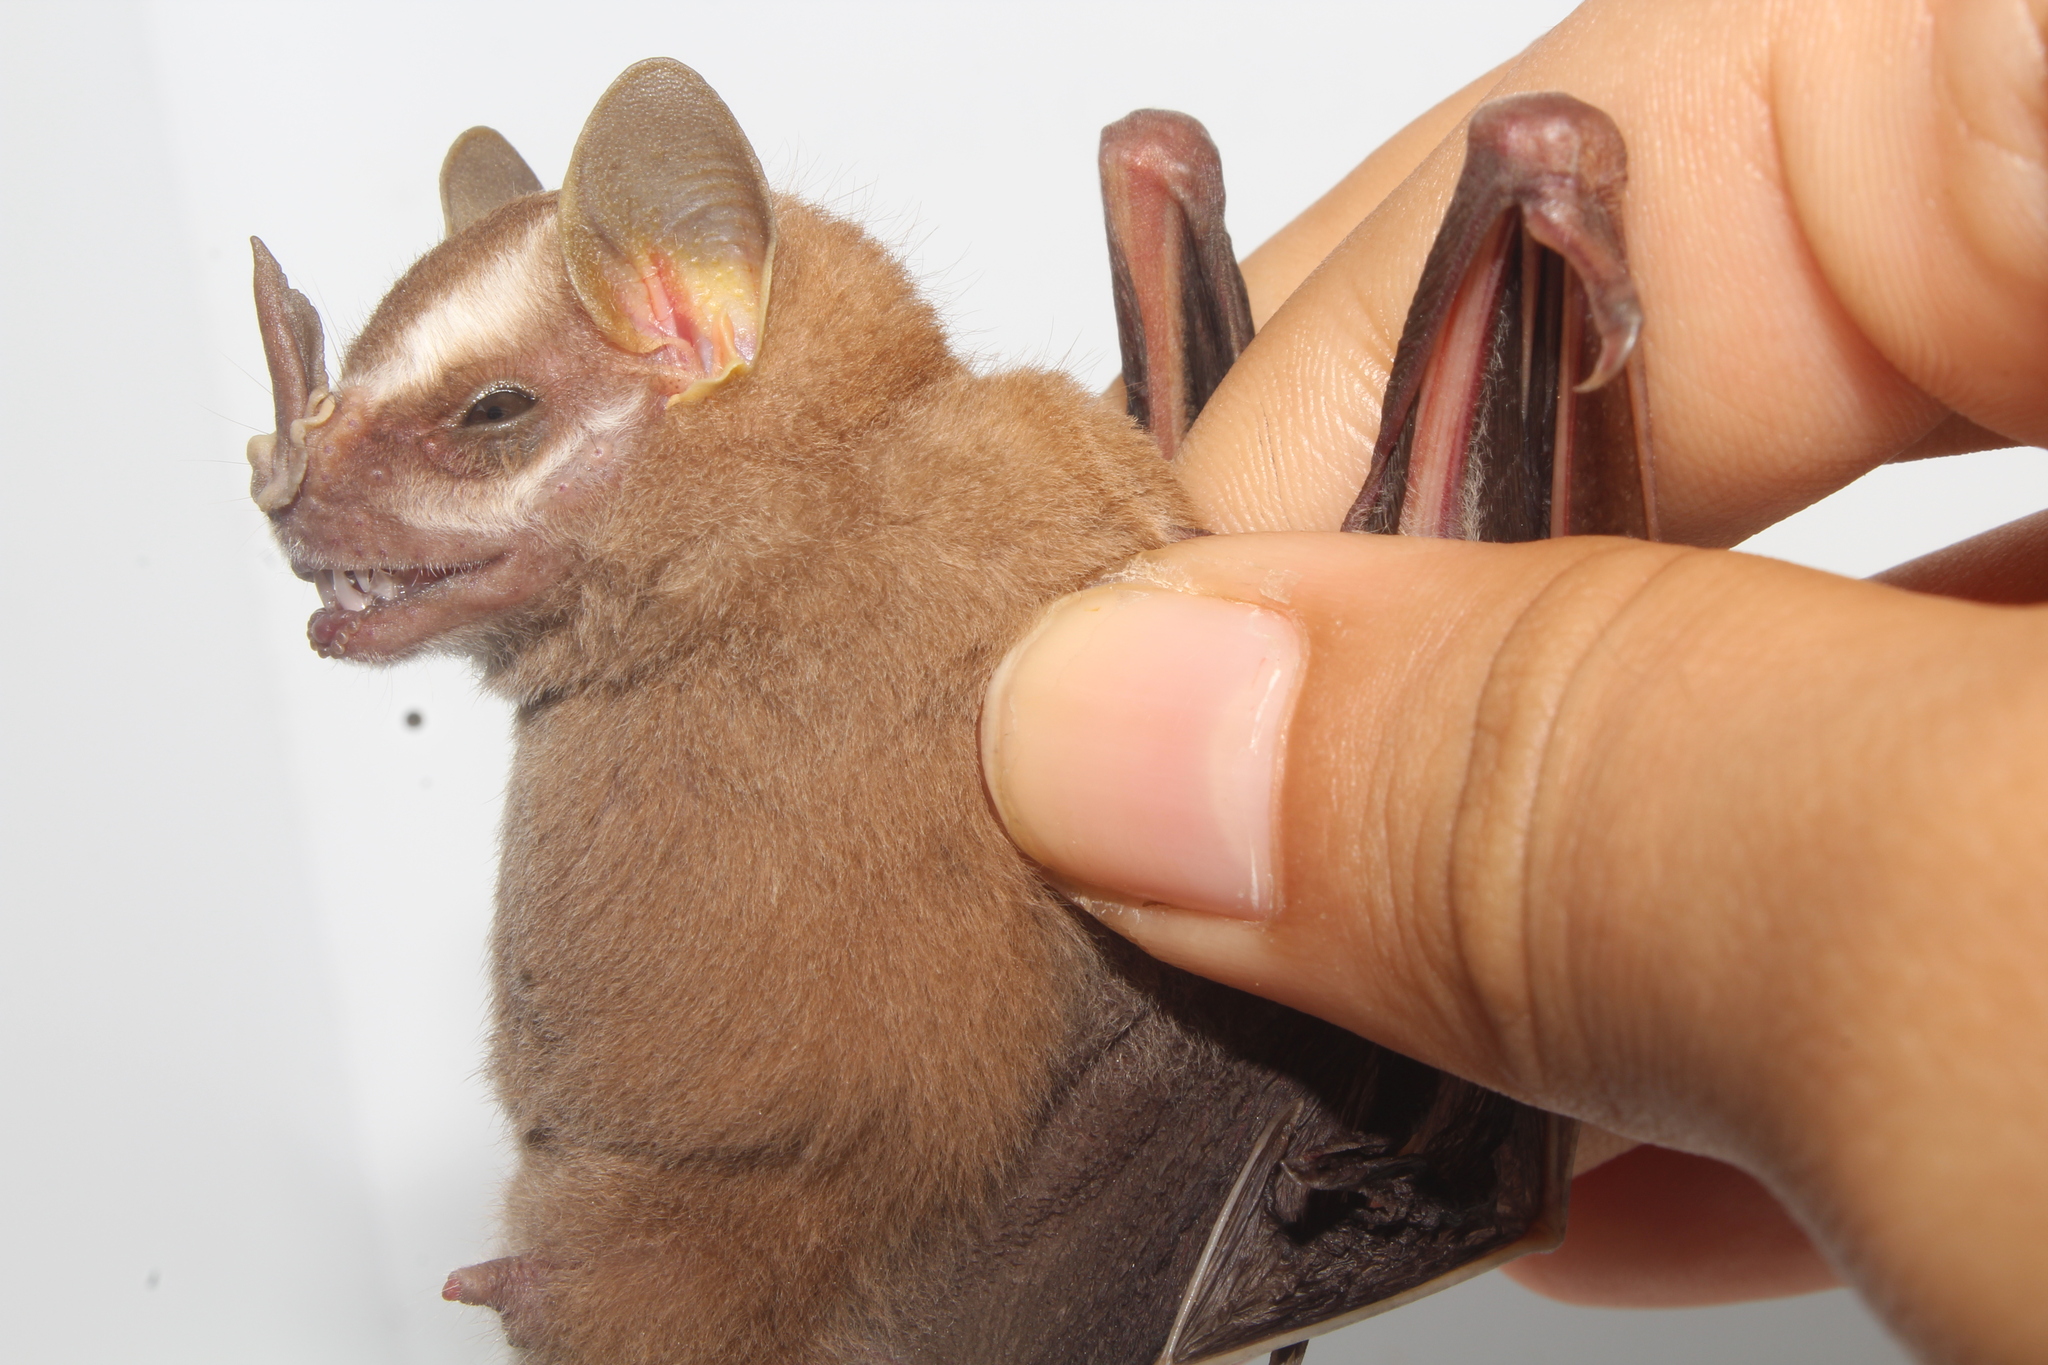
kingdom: Animalia
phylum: Chordata
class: Mammalia
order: Chiroptera
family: Phyllostomidae
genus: Platyrrhinus
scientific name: Platyrrhinus helleri
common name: Heller's broad-nosed bat
